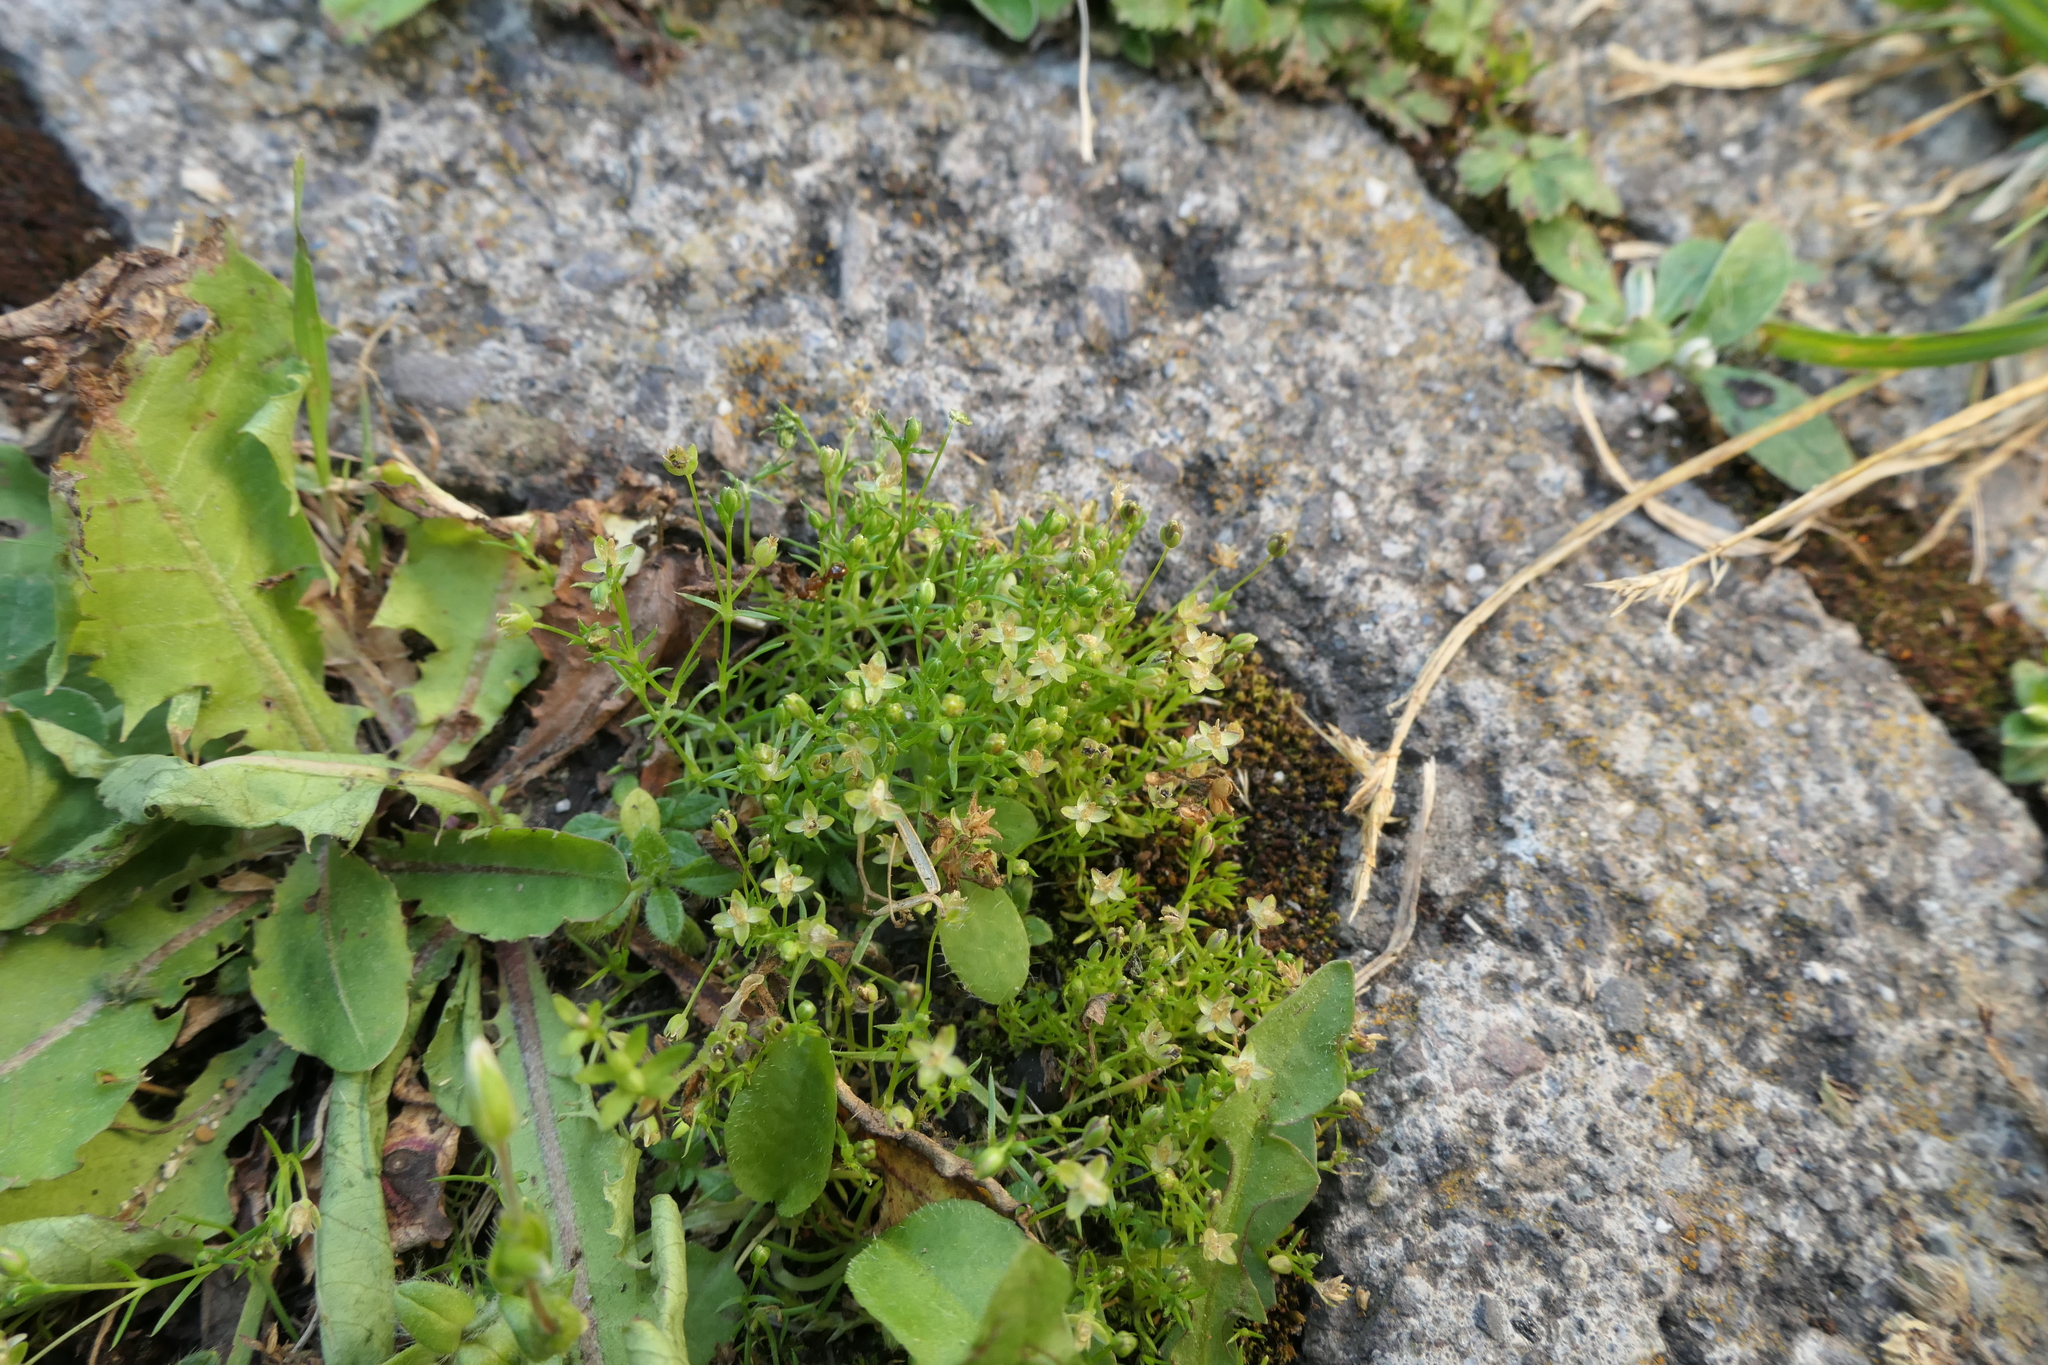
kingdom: Plantae
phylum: Tracheophyta
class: Magnoliopsida
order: Caryophyllales
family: Caryophyllaceae
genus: Sagina
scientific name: Sagina procumbens
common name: Procumbent pearlwort
